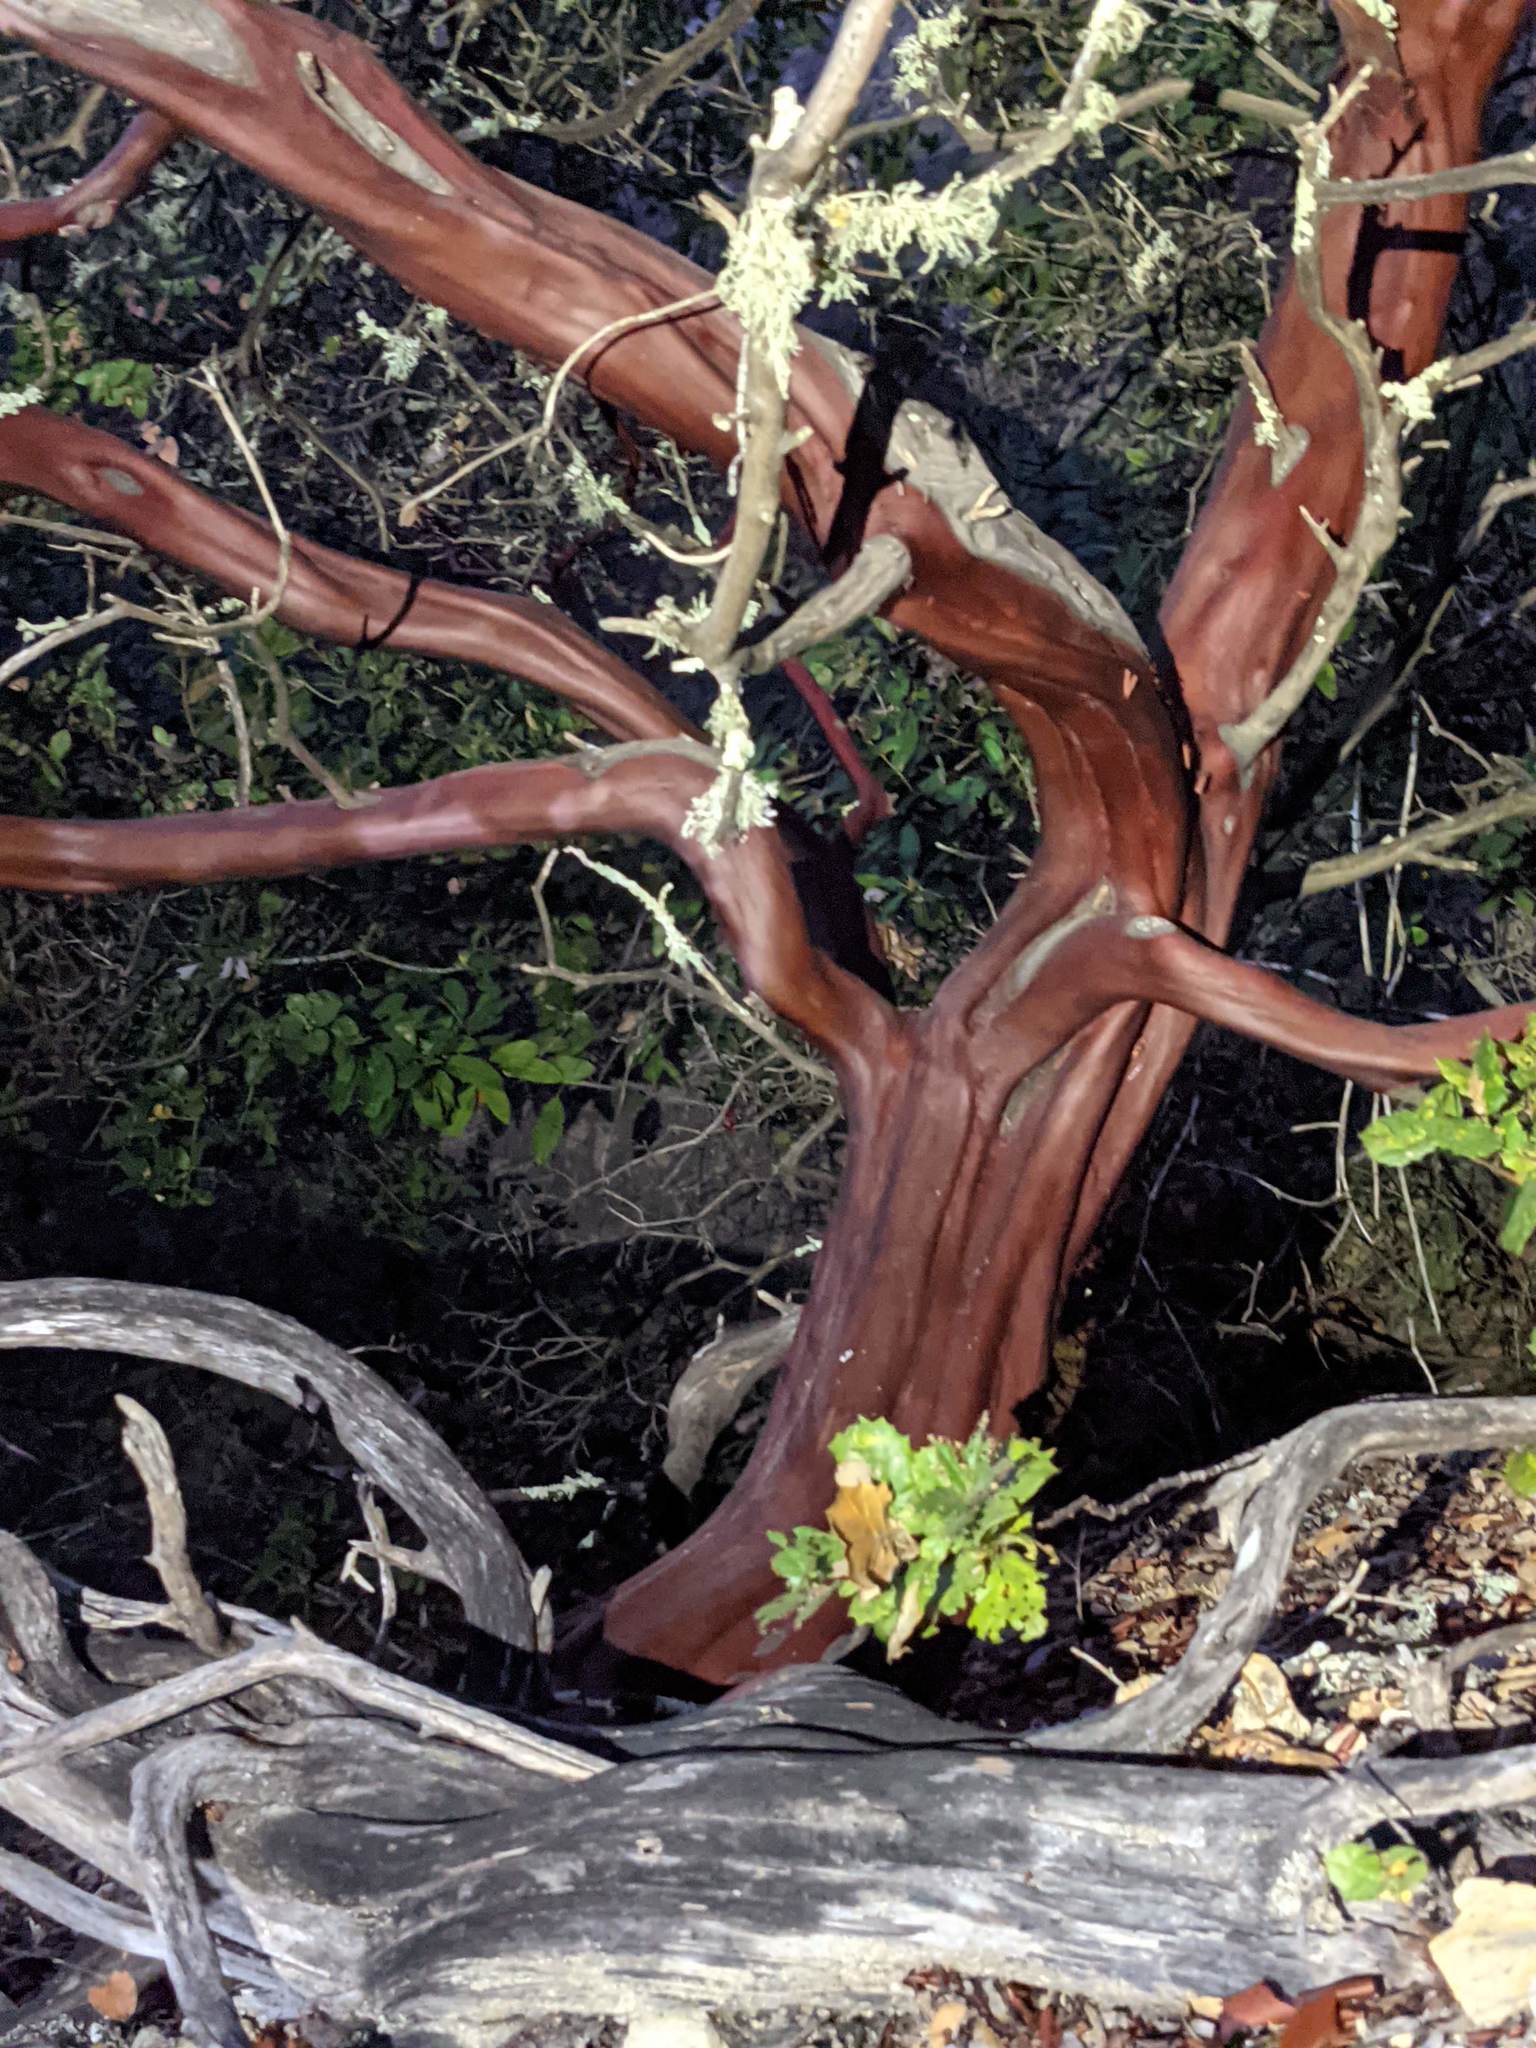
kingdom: Plantae
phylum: Tracheophyta
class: Magnoliopsida
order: Ericales
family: Ericaceae
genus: Arctostaphylos
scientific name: Arctostaphylos pechoensis
